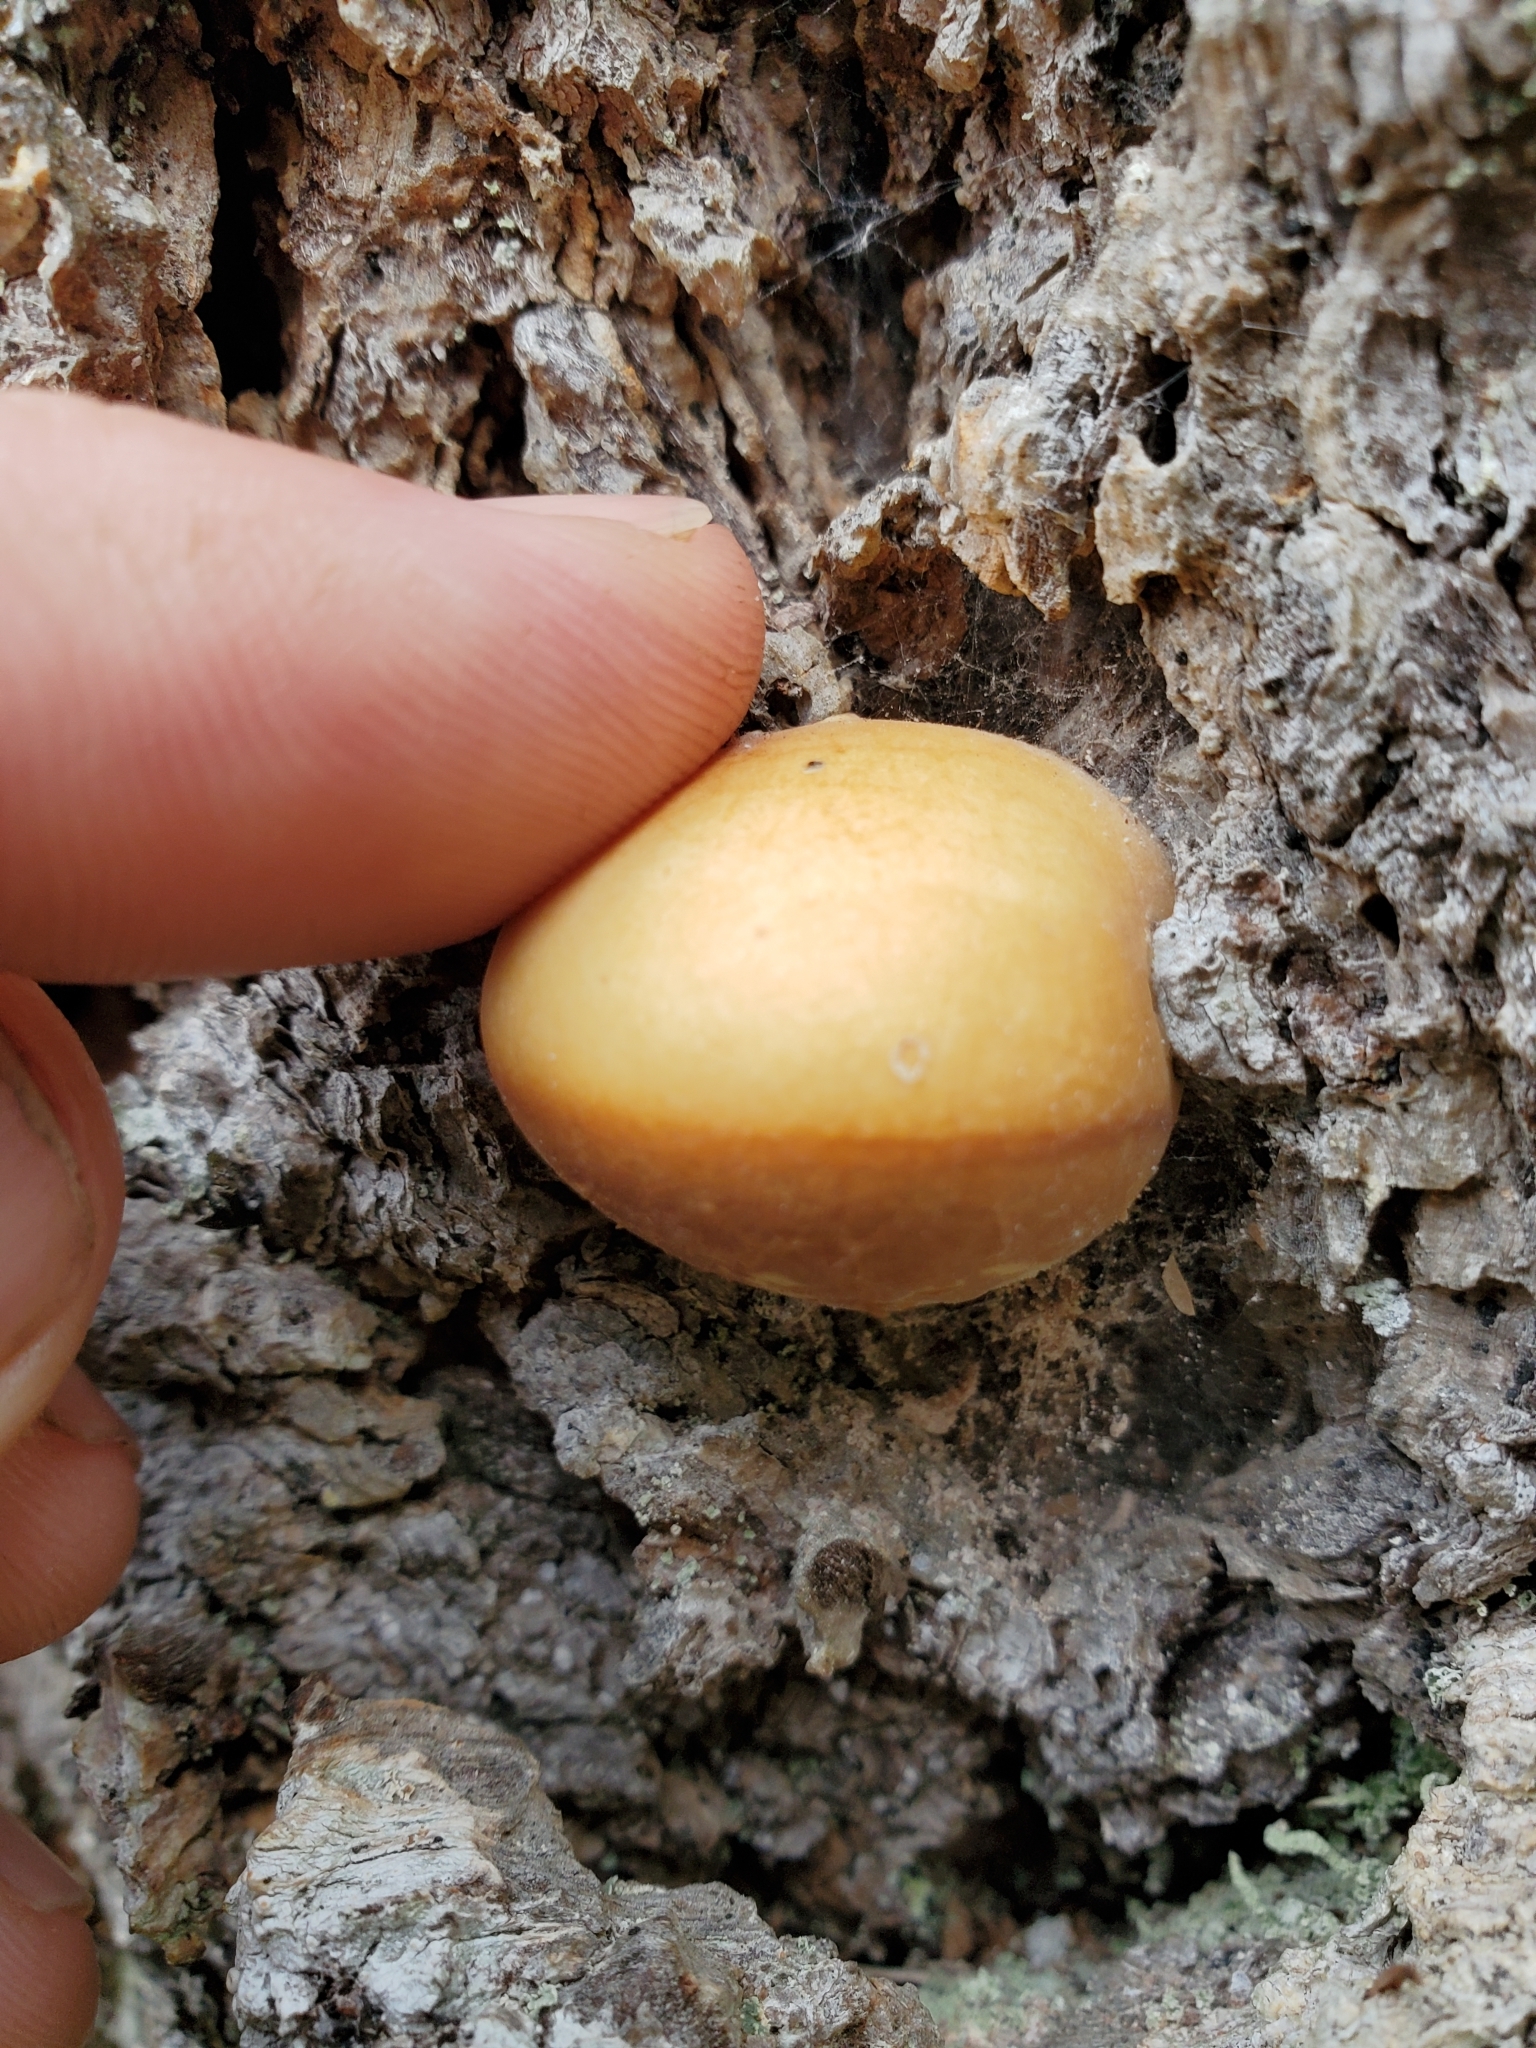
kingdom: Fungi
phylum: Basidiomycota
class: Agaricomycetes
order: Polyporales
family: Polyporaceae
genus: Cryptoporus
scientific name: Cryptoporus volvatus
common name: Veiled polypore
